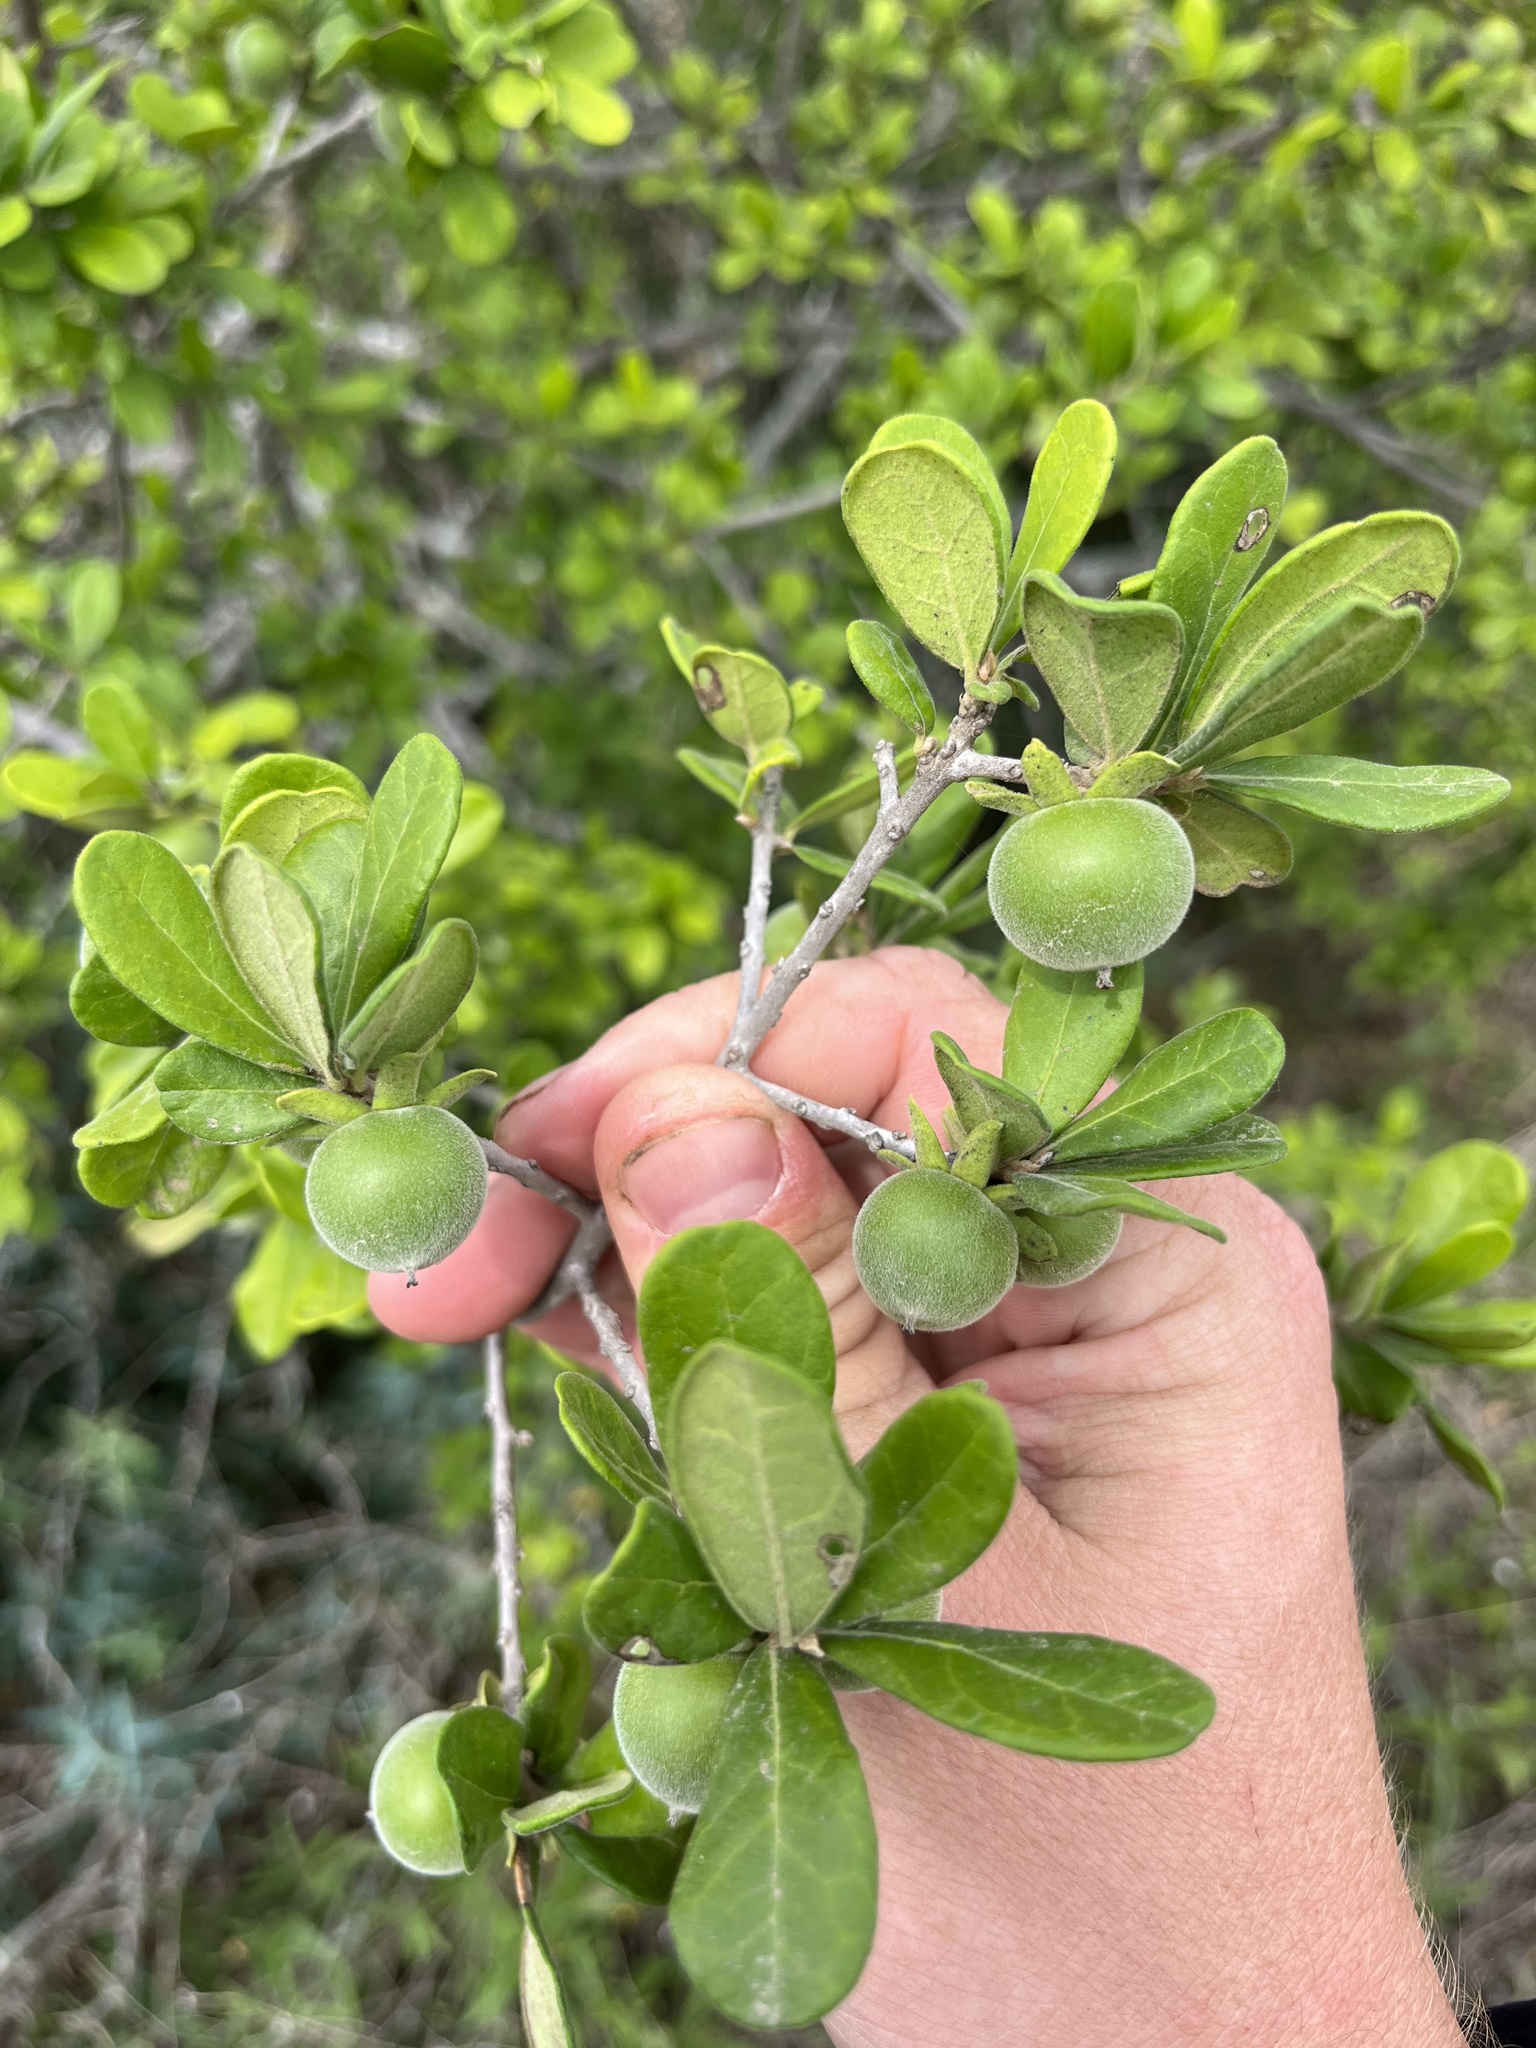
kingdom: Plantae
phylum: Tracheophyta
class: Magnoliopsida
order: Ericales
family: Ebenaceae
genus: Diospyros
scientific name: Diospyros texana
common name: Texas persimmon
